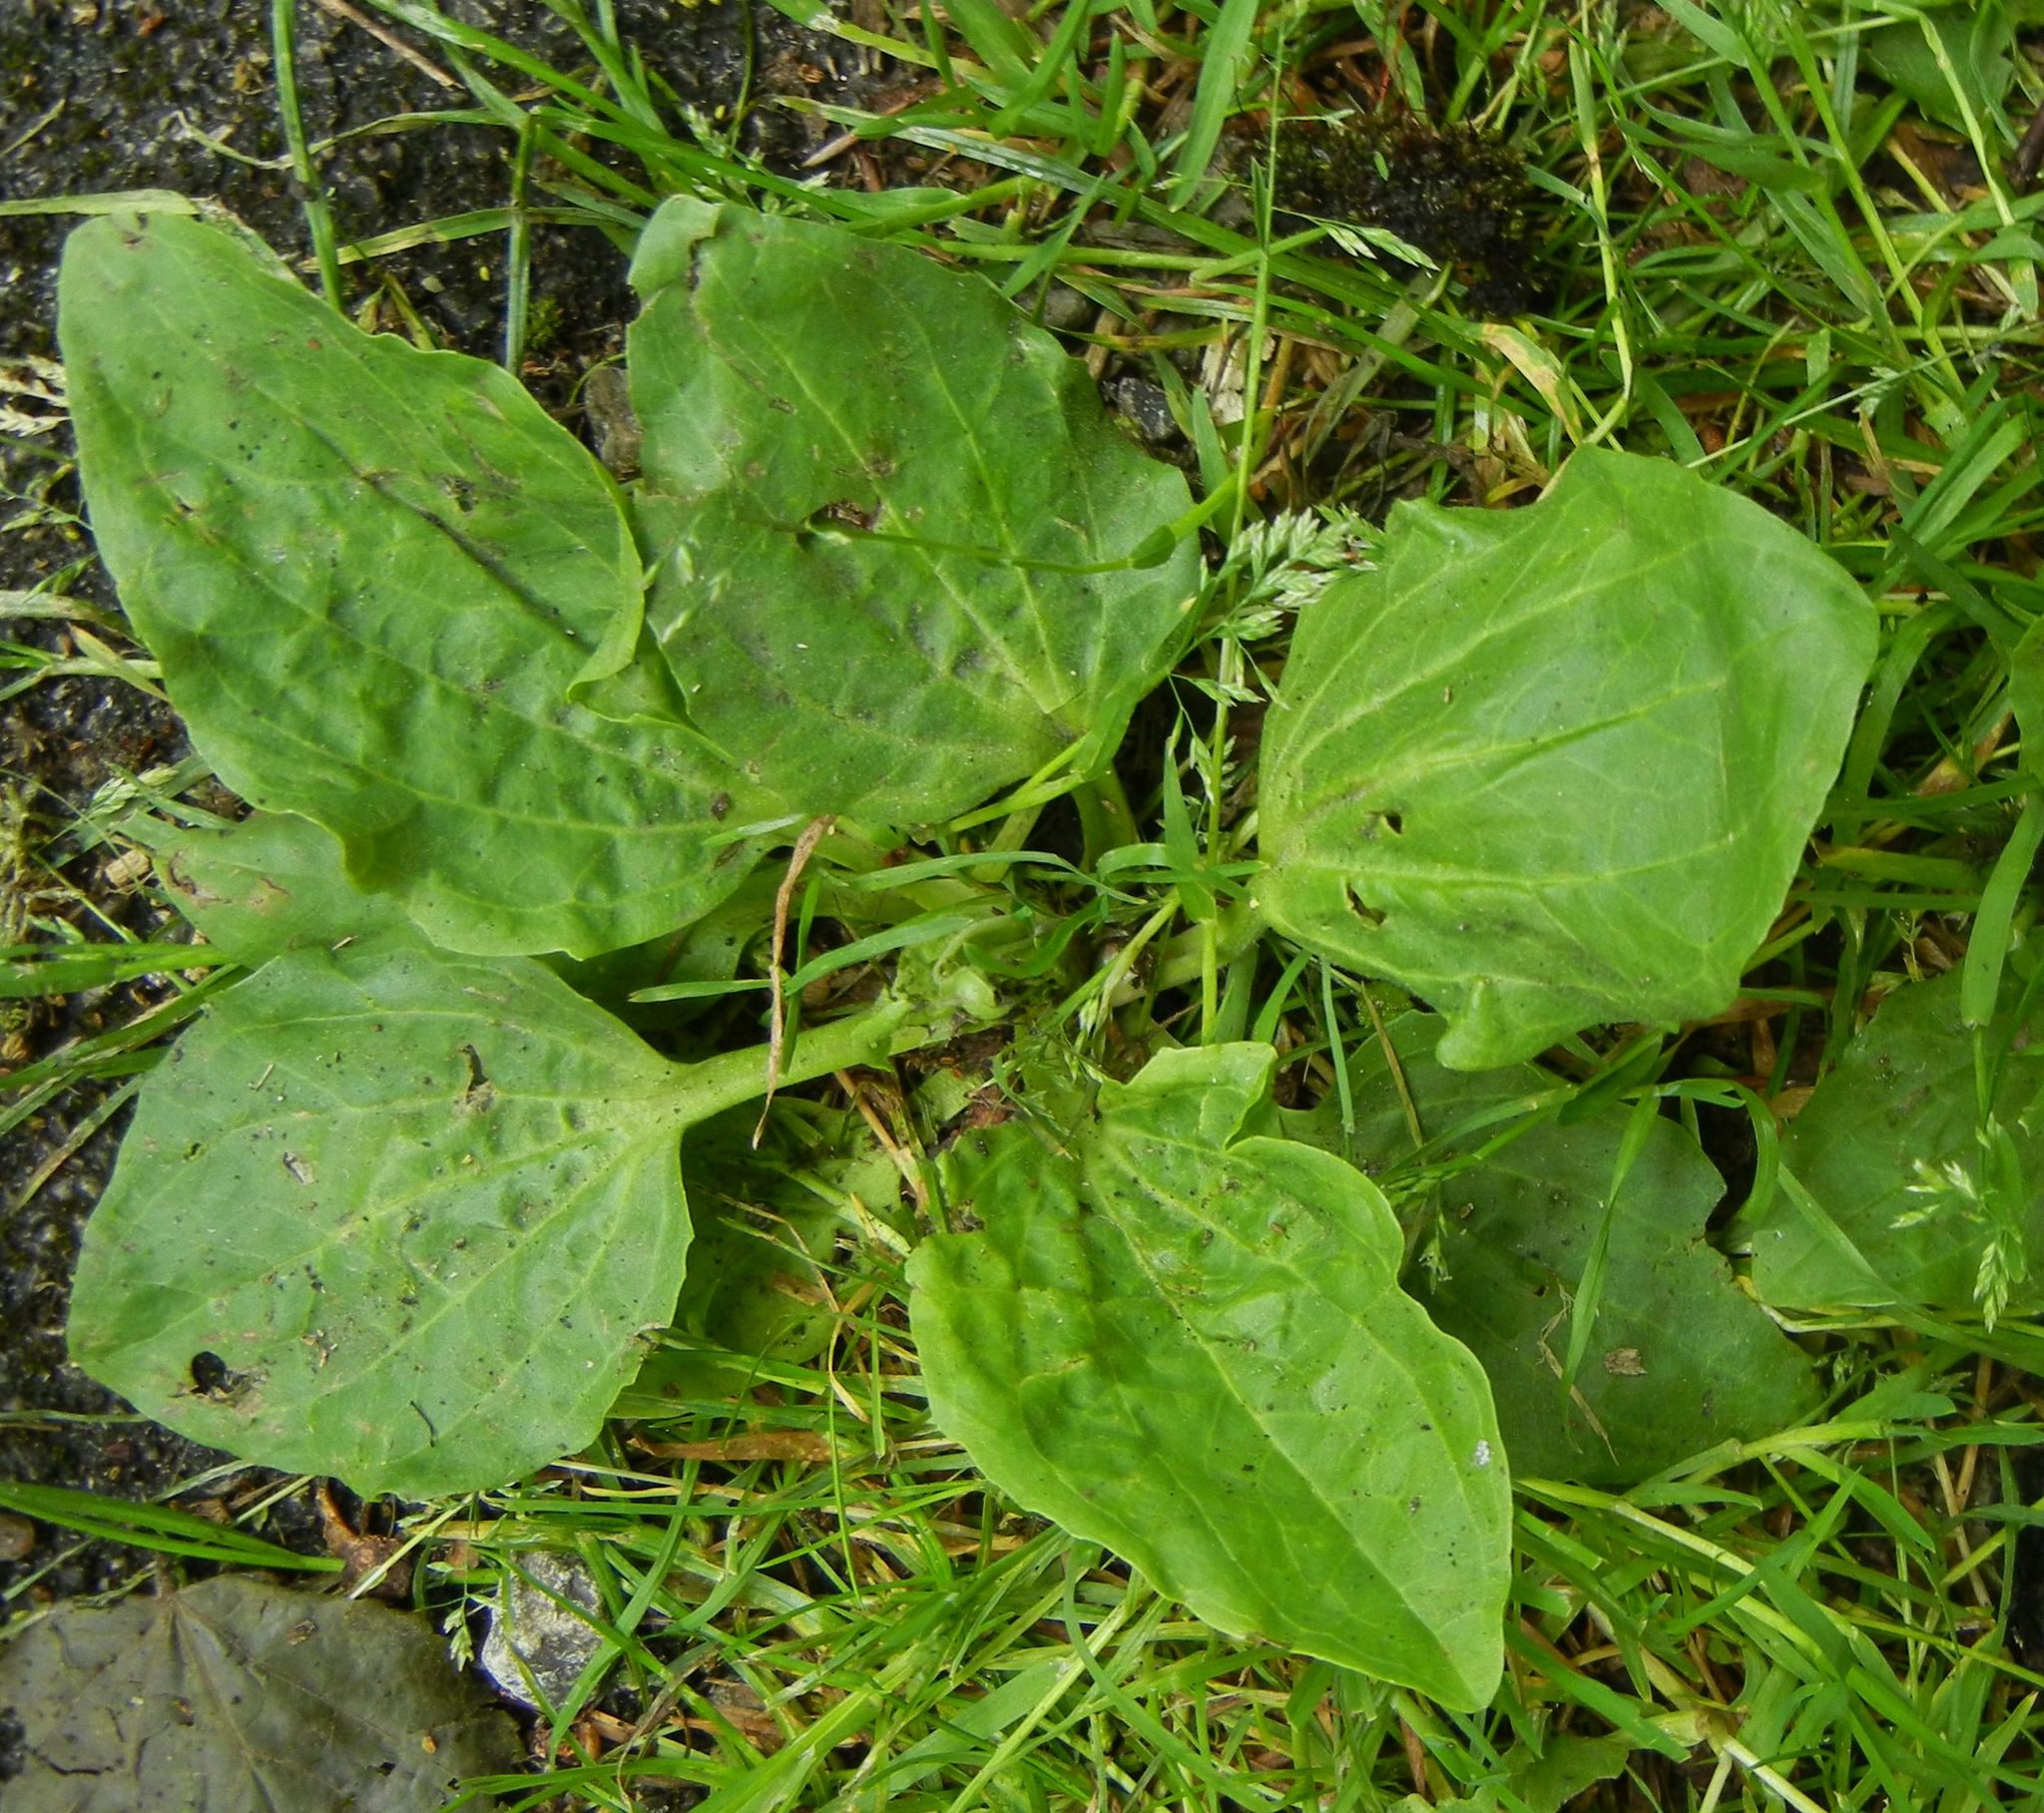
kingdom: Plantae
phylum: Tracheophyta
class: Magnoliopsida
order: Lamiales
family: Plantaginaceae
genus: Plantago
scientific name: Plantago major
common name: Common plantain
